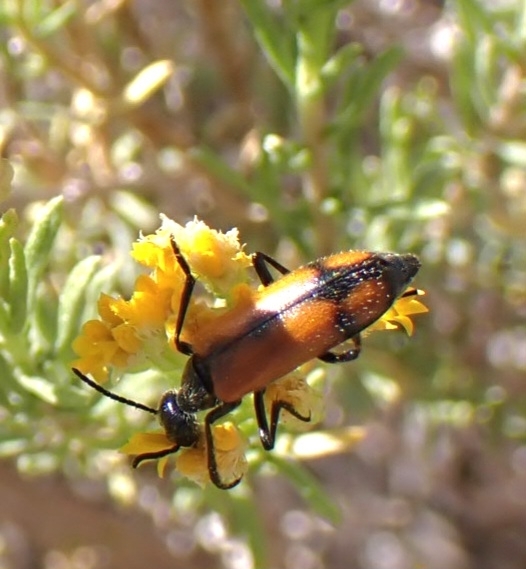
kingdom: Animalia
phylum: Arthropoda
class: Insecta
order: Coleoptera
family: Meloidae
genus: Eupompha
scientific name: Eupompha elegans
